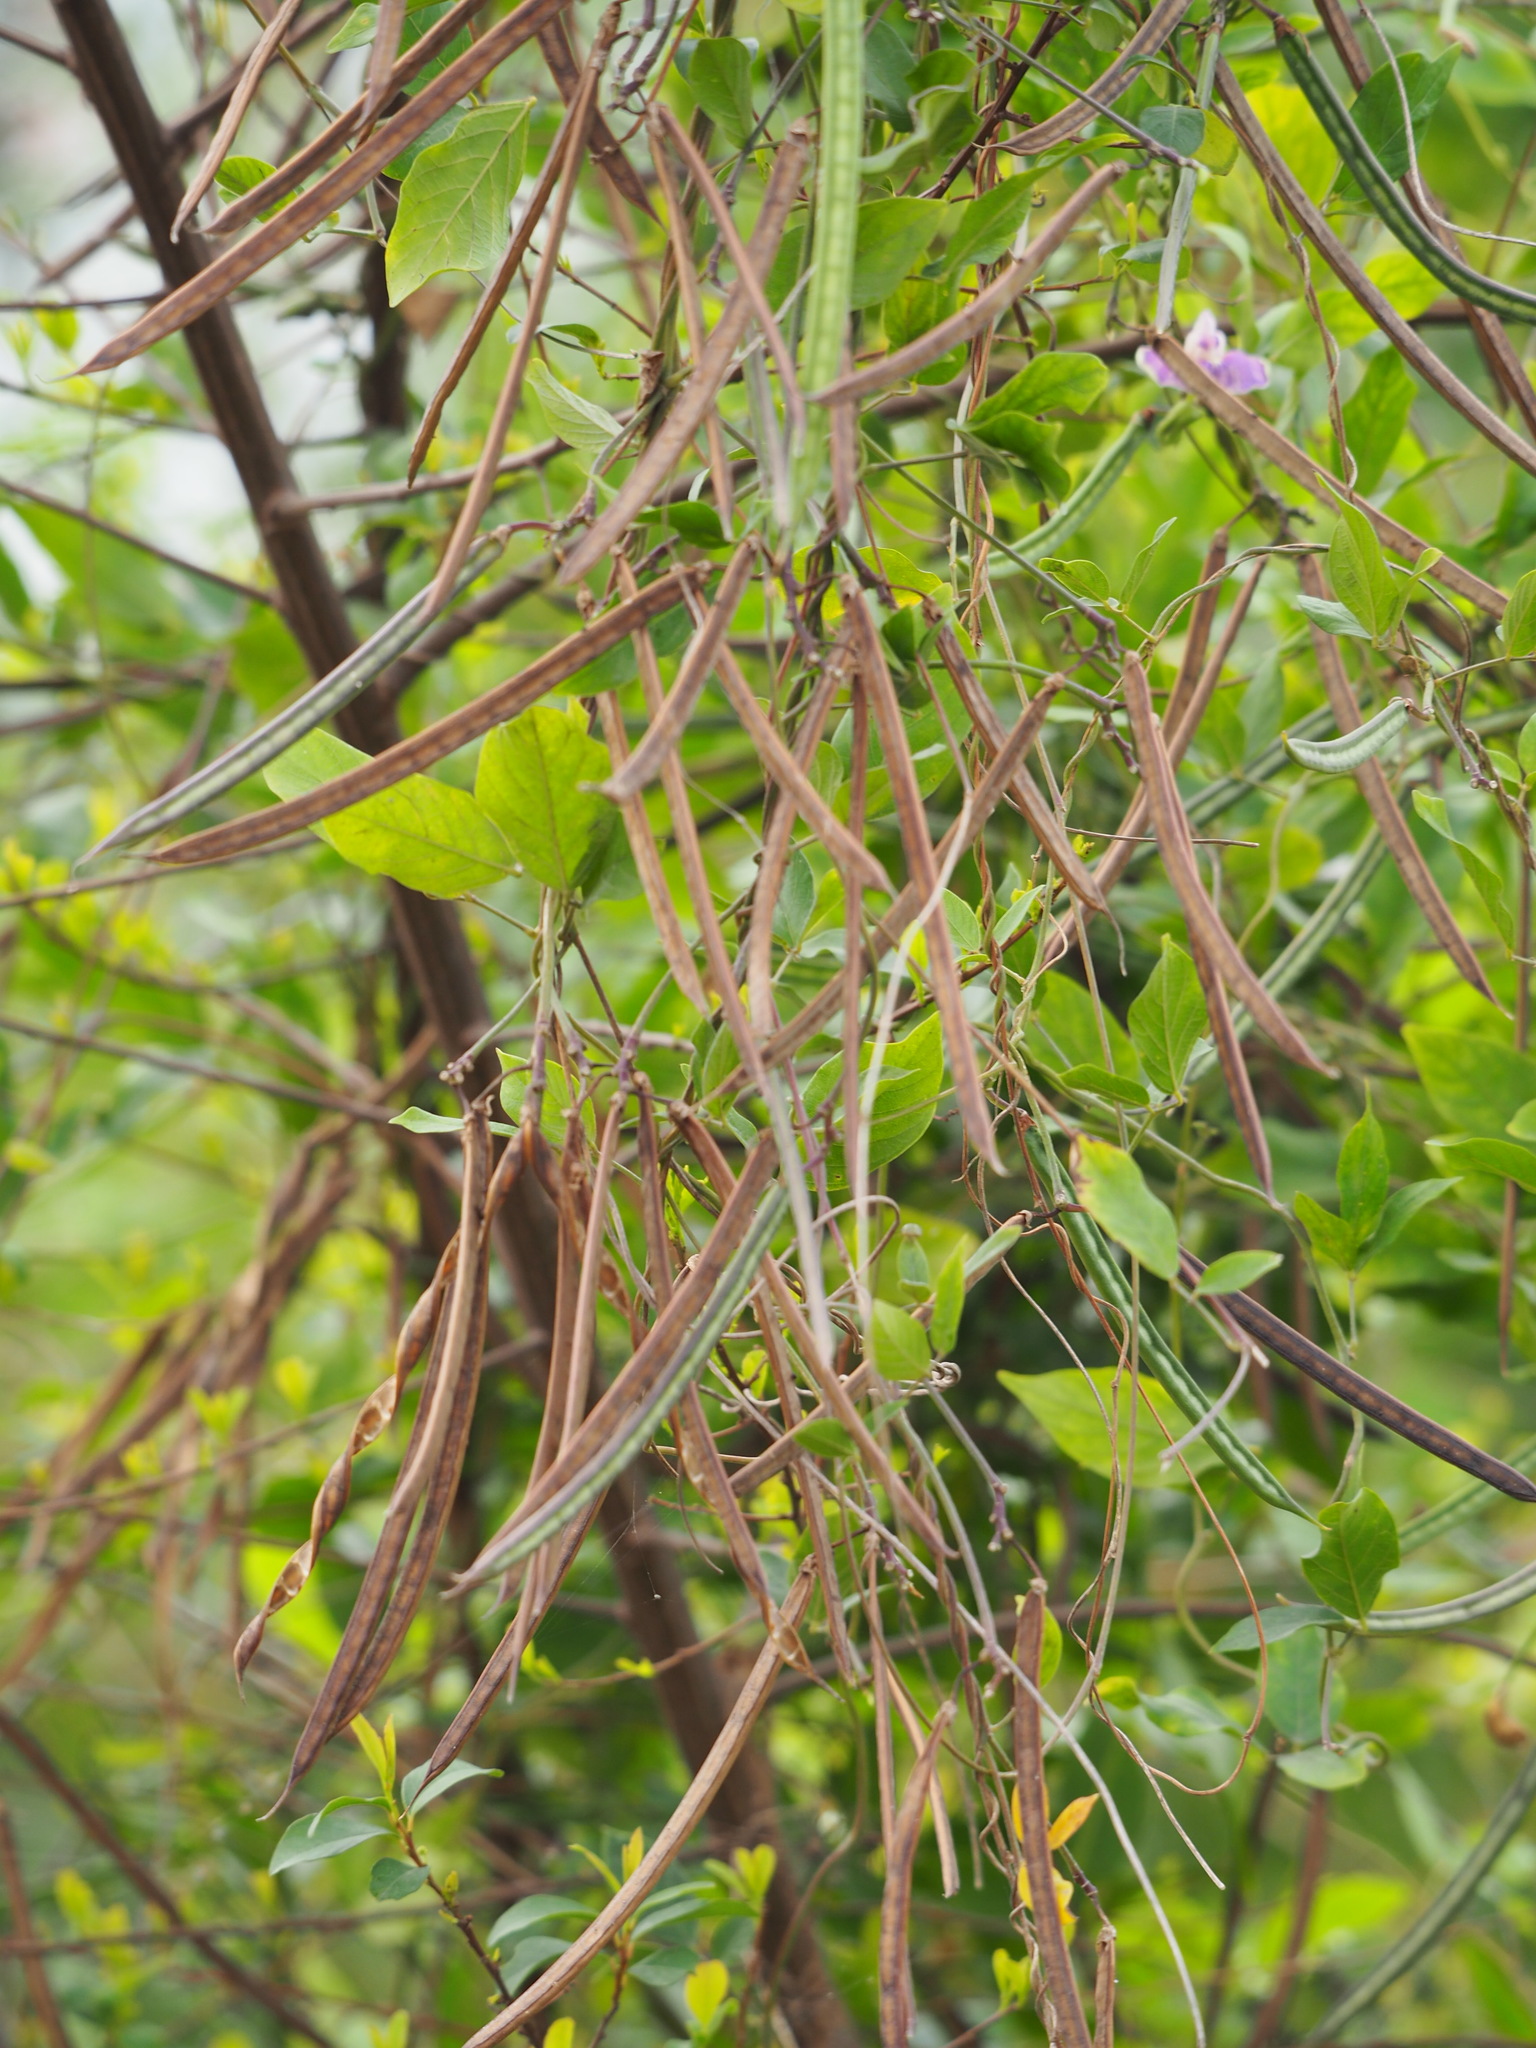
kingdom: Plantae
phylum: Tracheophyta
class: Magnoliopsida
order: Fabales
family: Fabaceae
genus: Centrosema
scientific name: Centrosema pubescens
